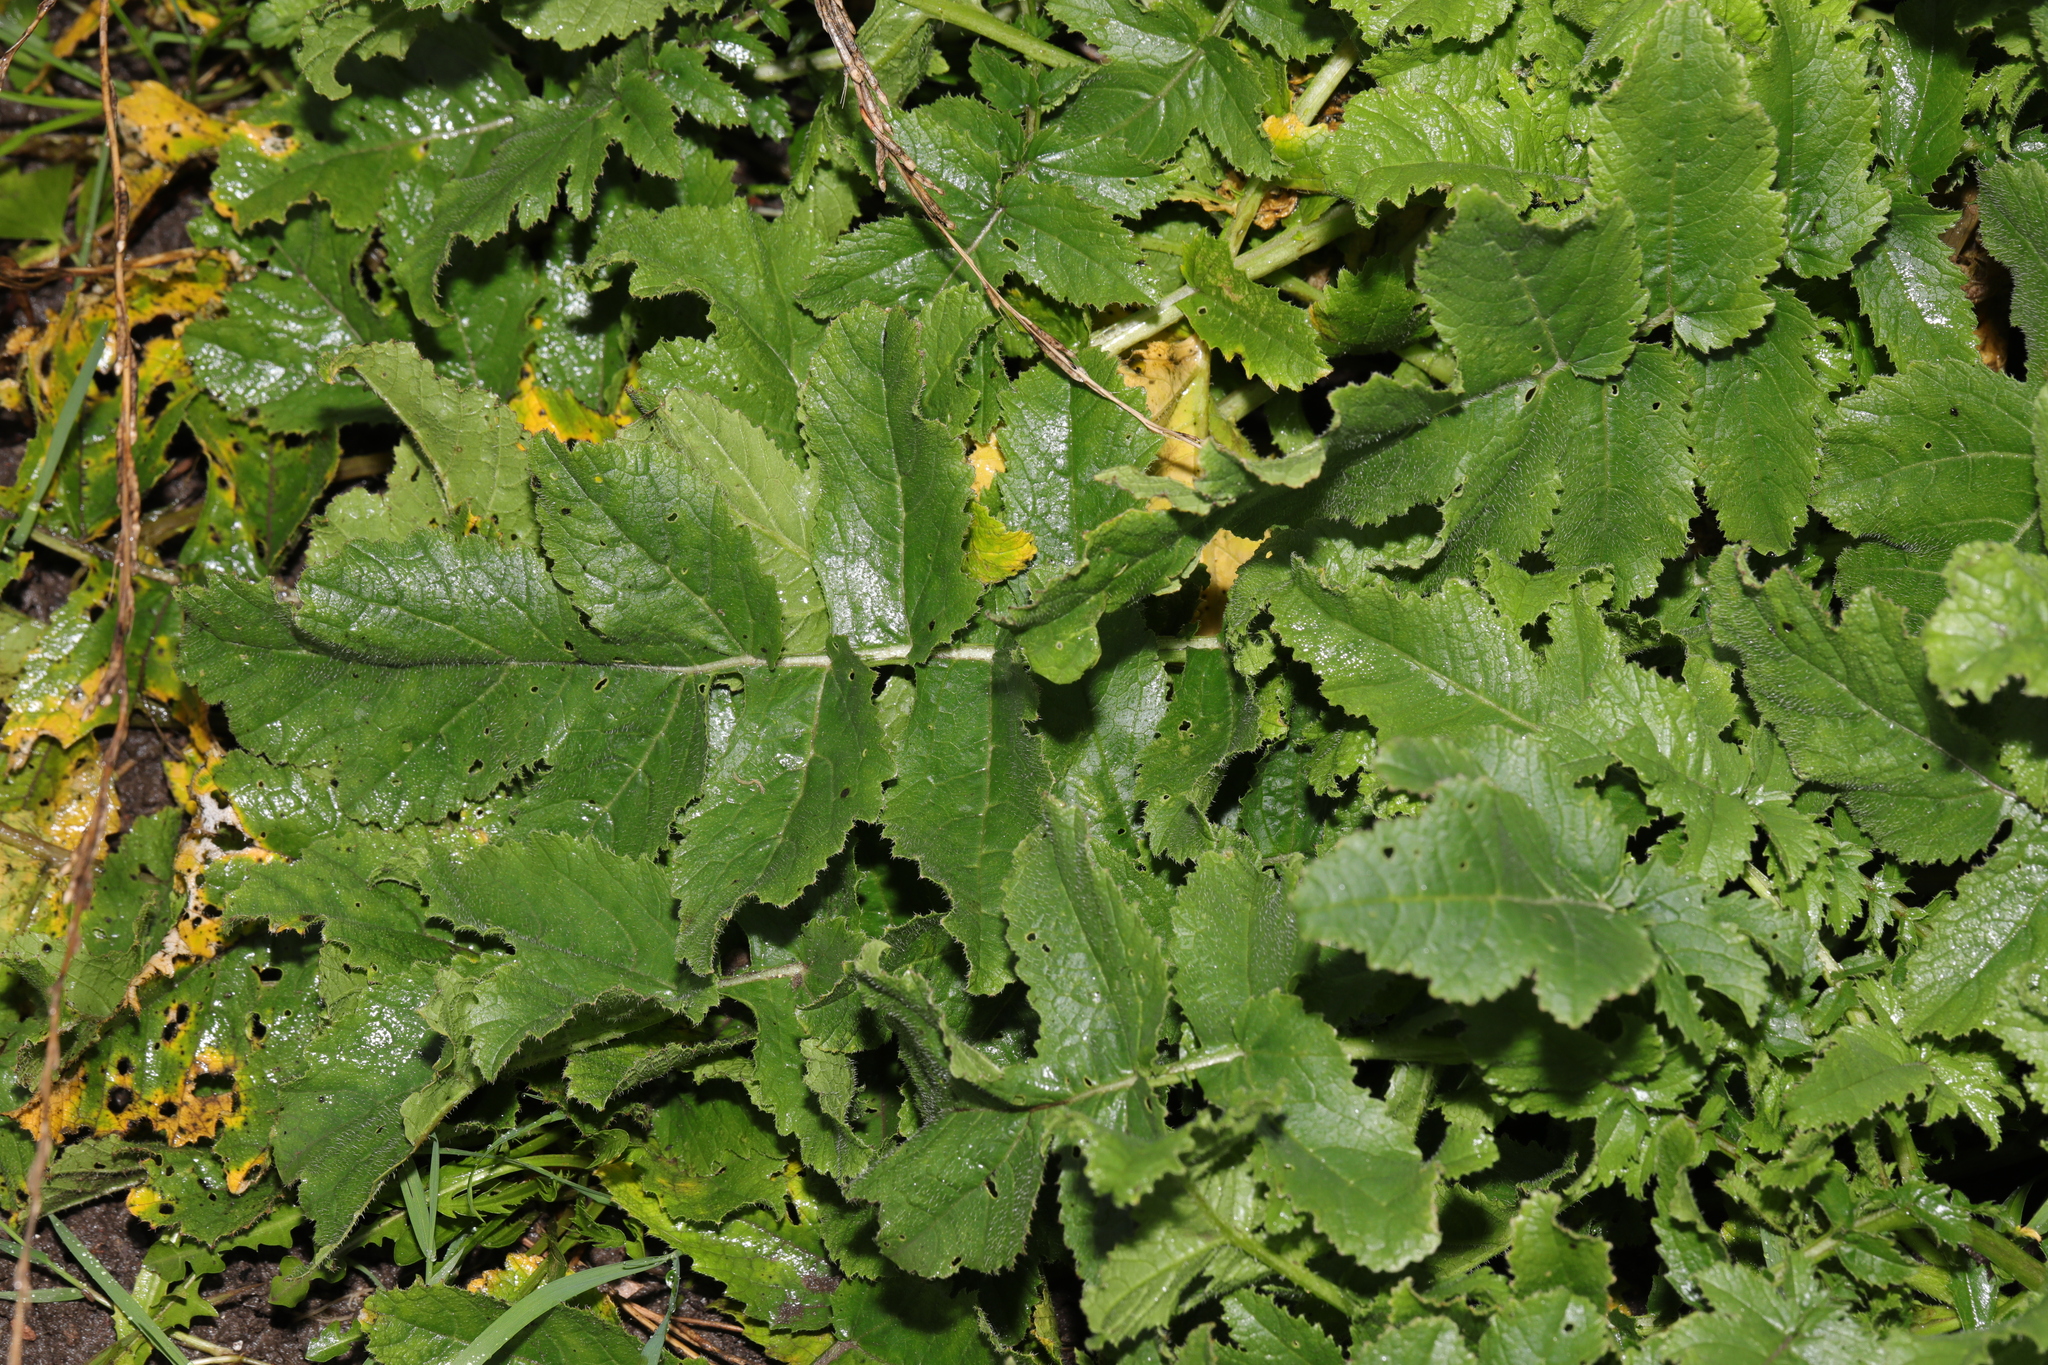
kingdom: Plantae
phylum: Tracheophyta
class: Magnoliopsida
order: Brassicales
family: Brassicaceae
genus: Raphanus
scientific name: Raphanus raphanistrum
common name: Wild radish
